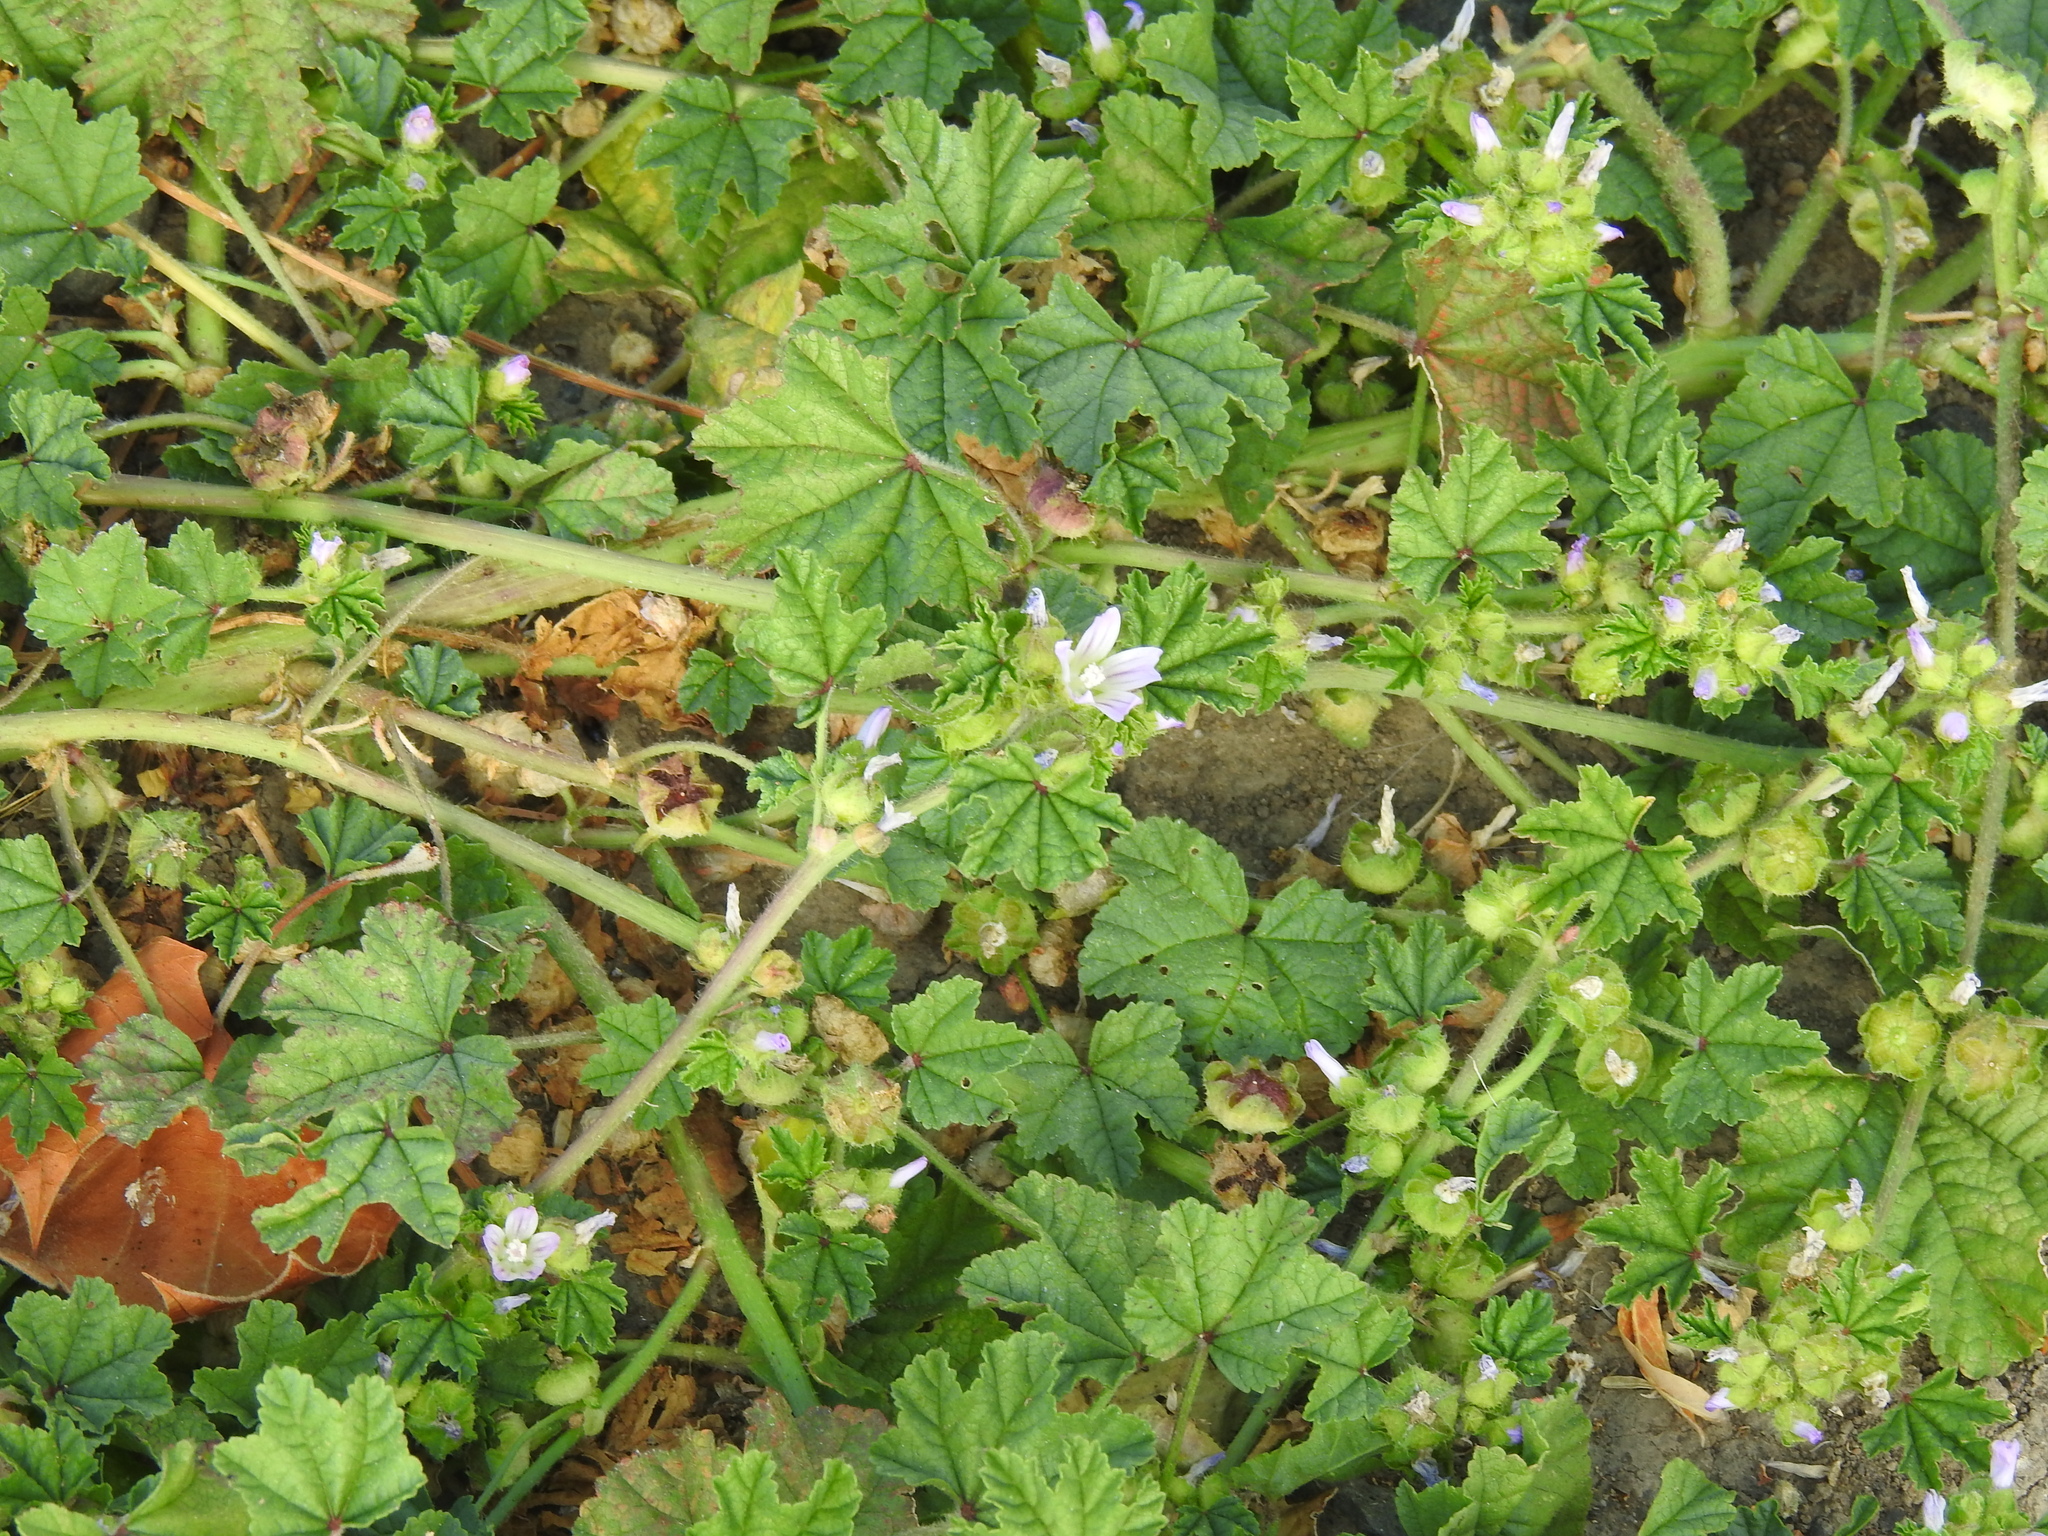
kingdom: Plantae
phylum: Tracheophyta
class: Magnoliopsida
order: Malvales
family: Malvaceae
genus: Malva
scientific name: Malva nicaeensis
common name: French mallow
